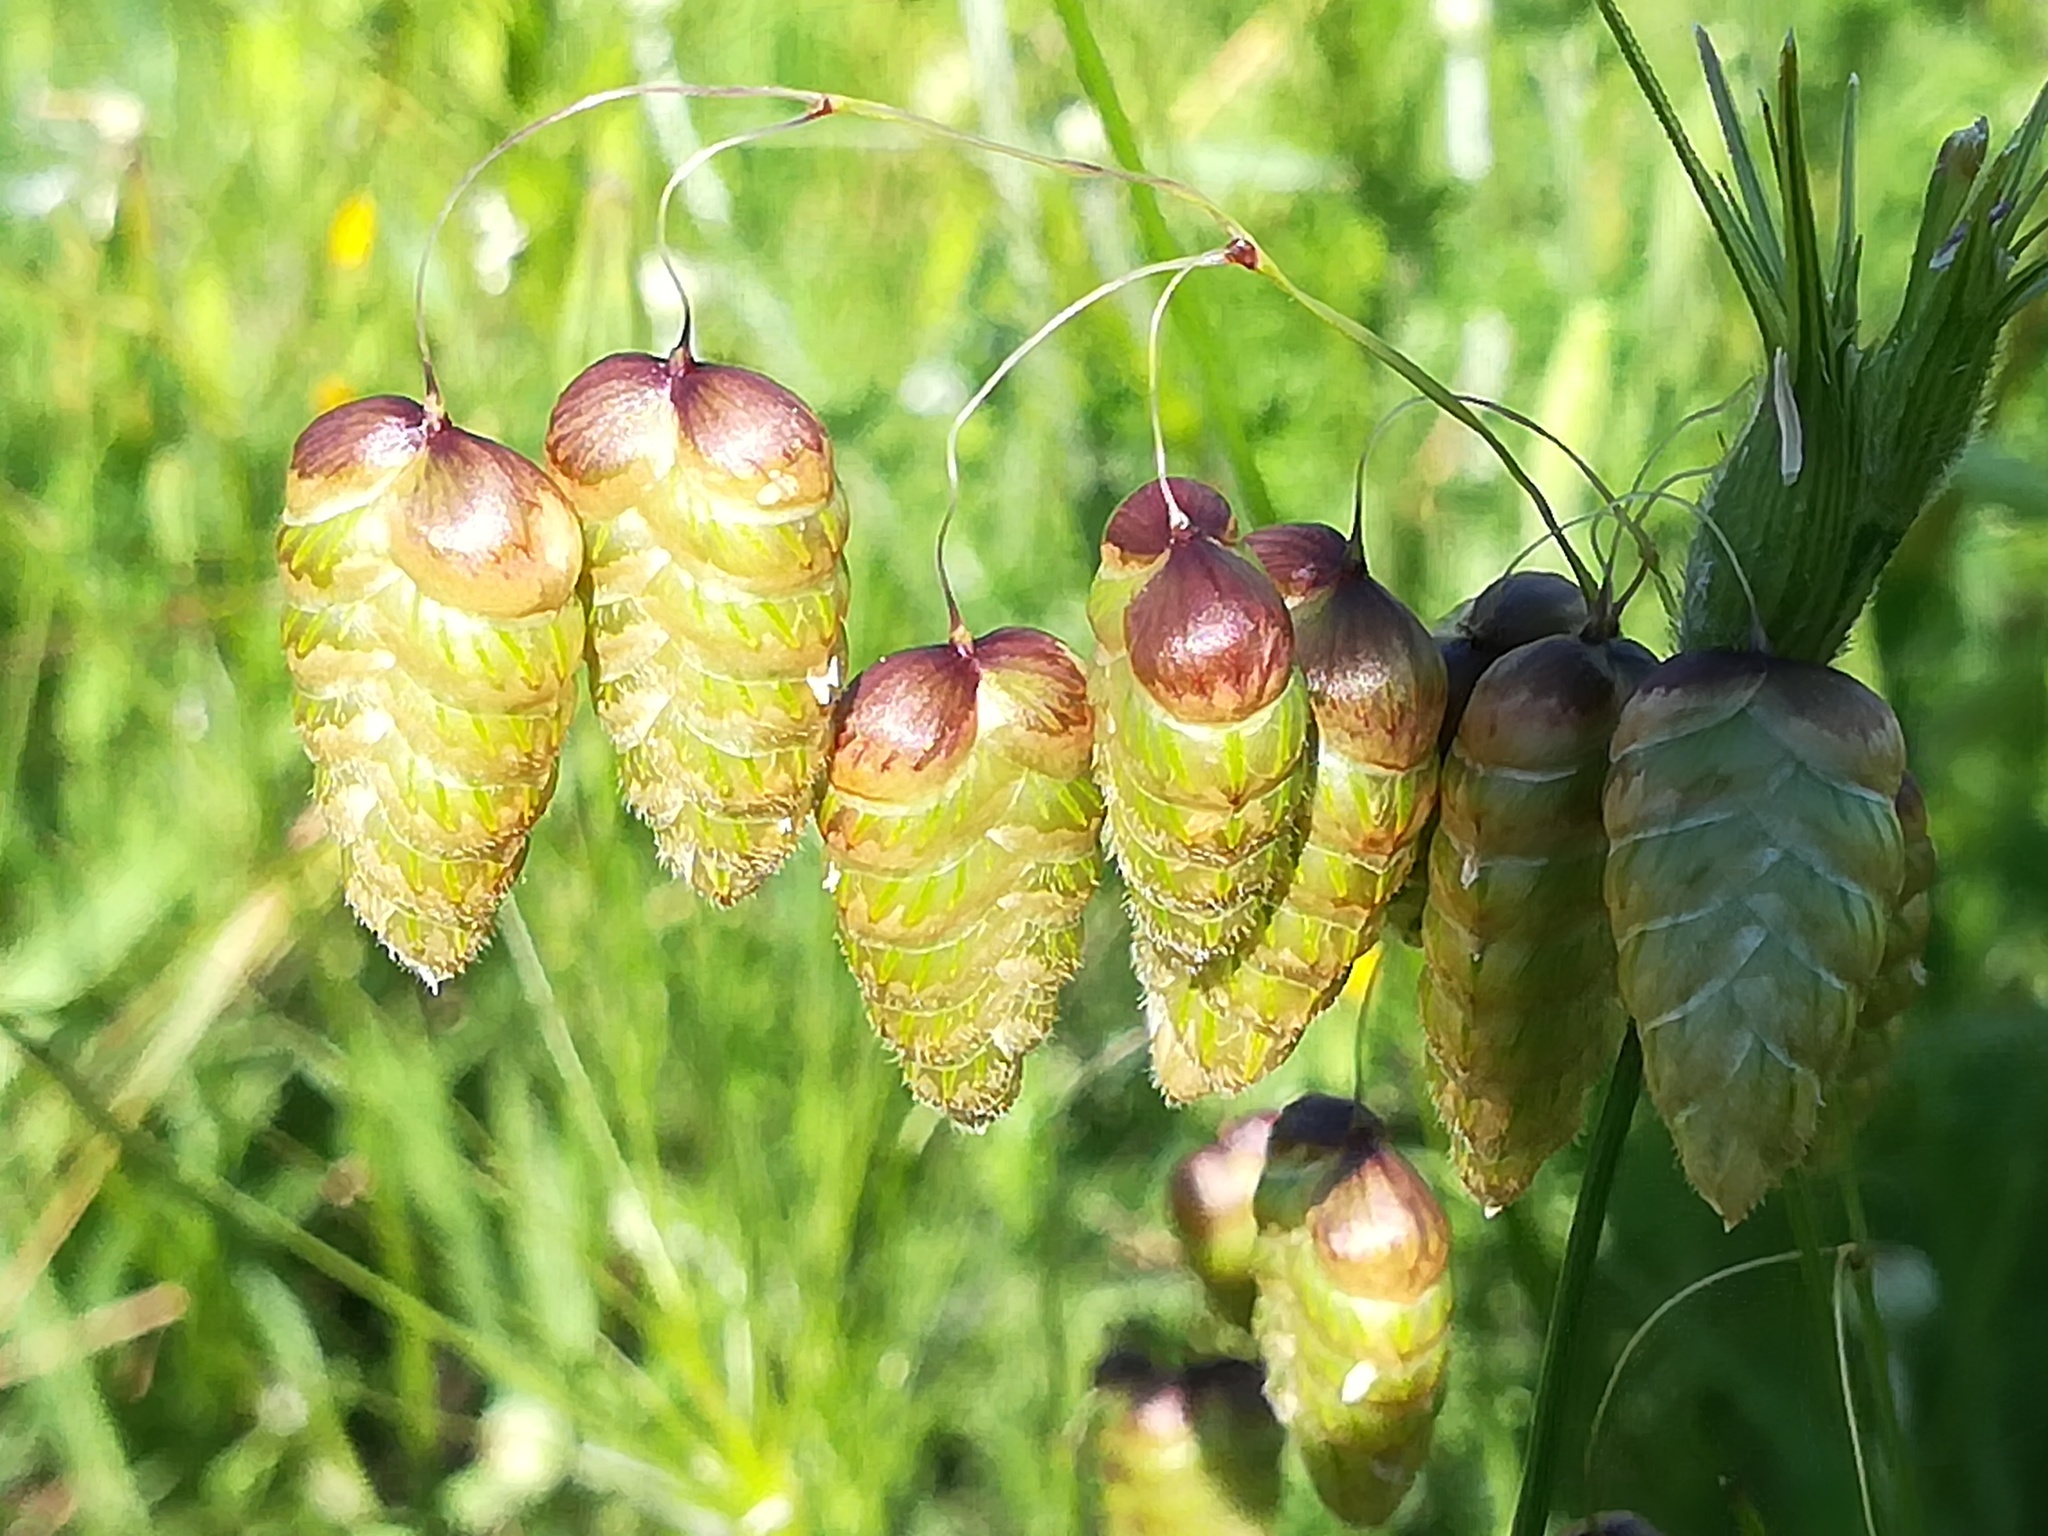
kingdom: Plantae
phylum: Tracheophyta
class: Liliopsida
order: Poales
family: Poaceae
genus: Briza
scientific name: Briza maxima
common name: Big quakinggrass
